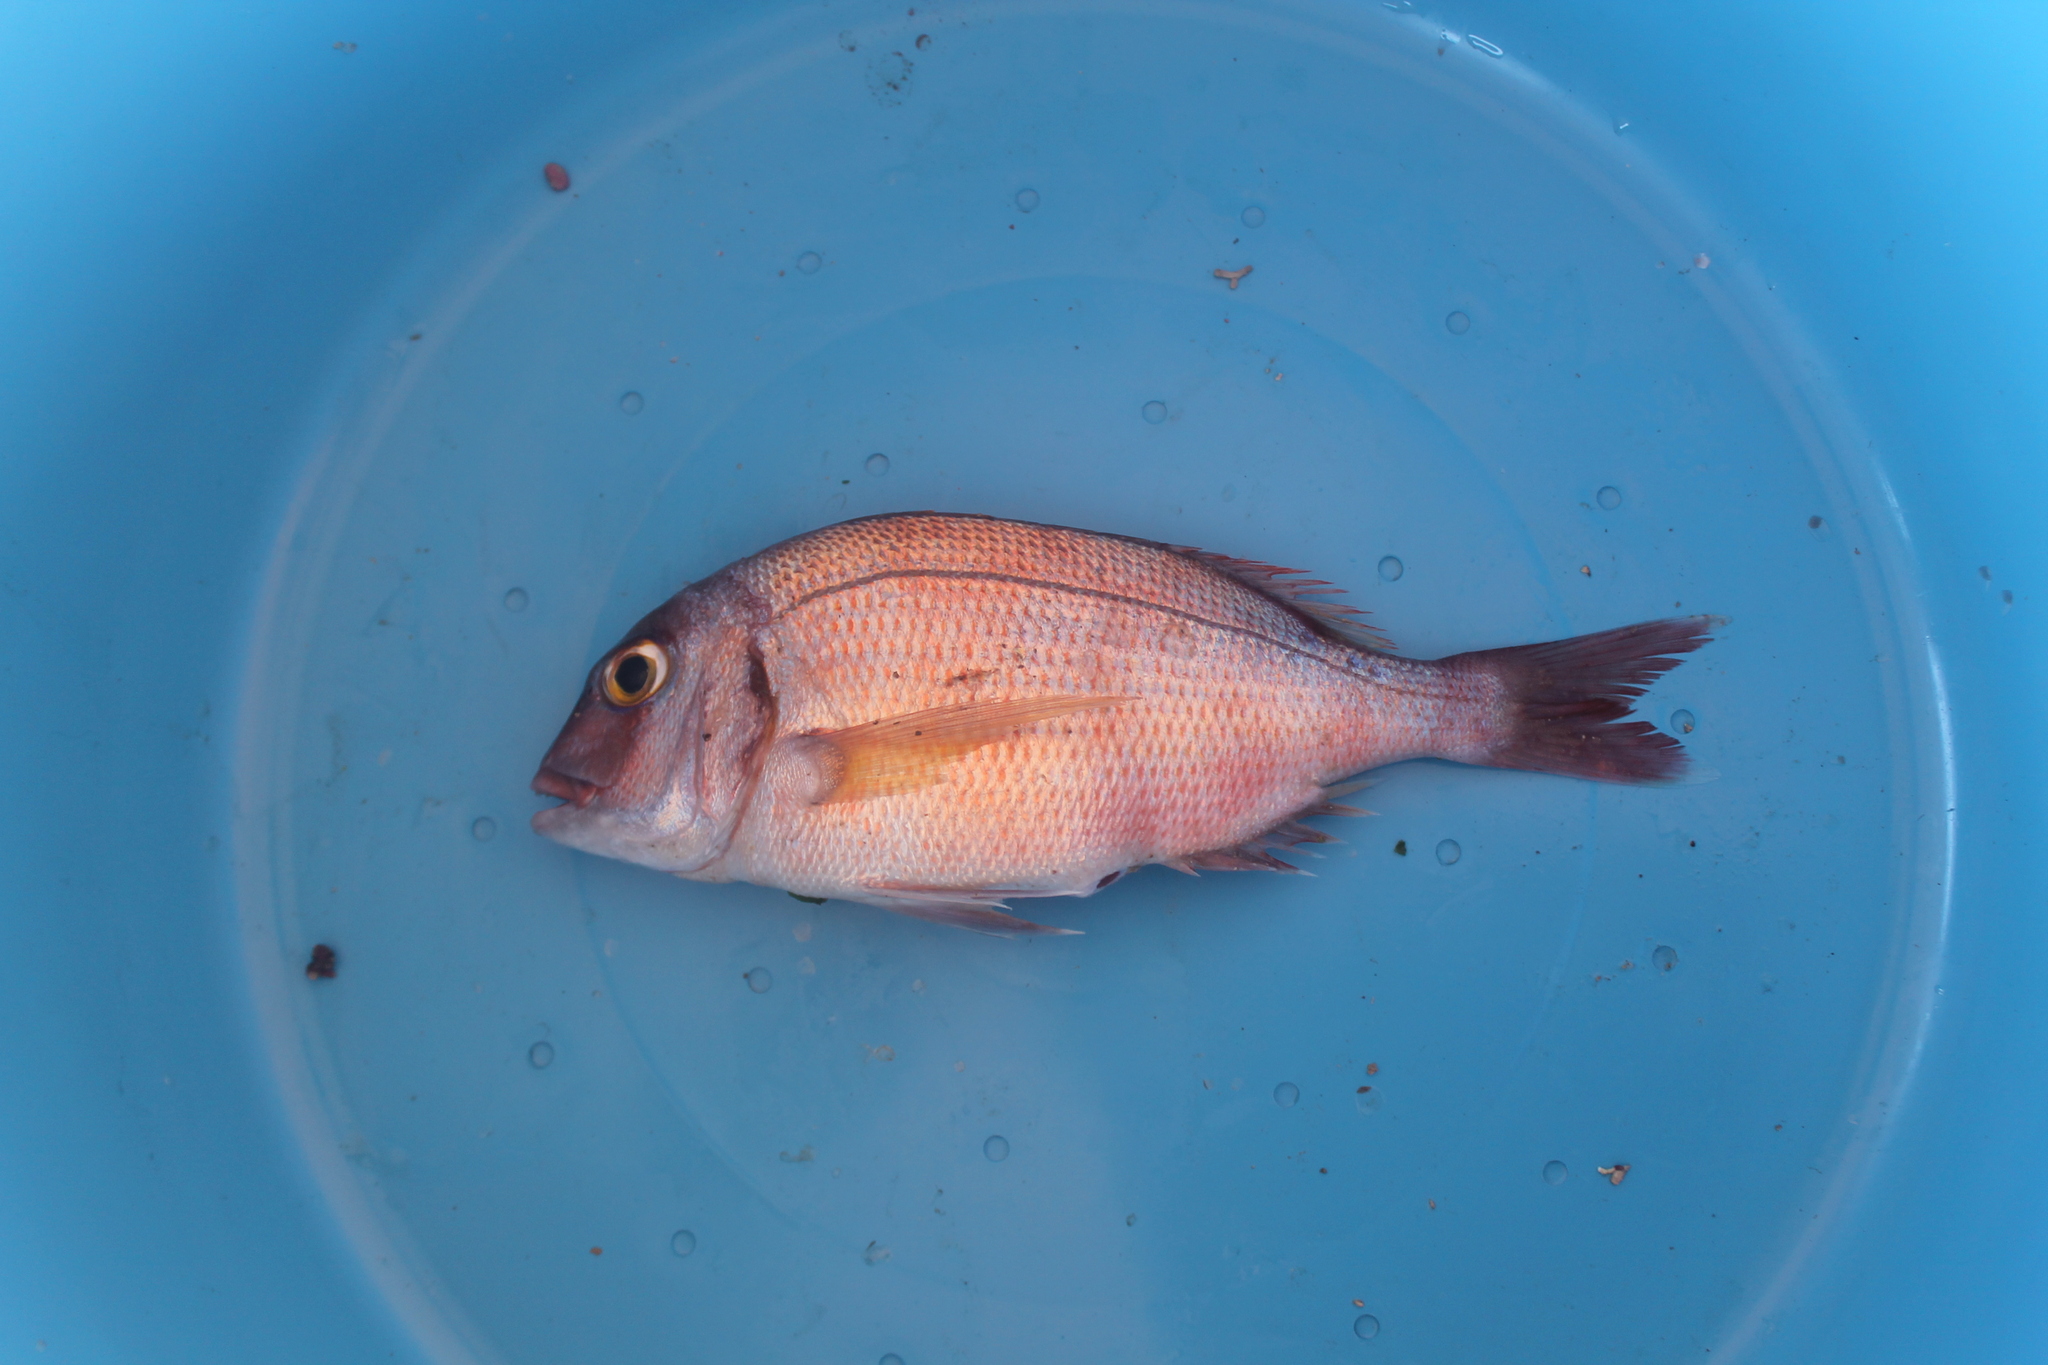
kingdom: Animalia
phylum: Chordata
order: Perciformes
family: Sparidae
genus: Pagrus
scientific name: Pagrus pagrus
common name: Red porgy
